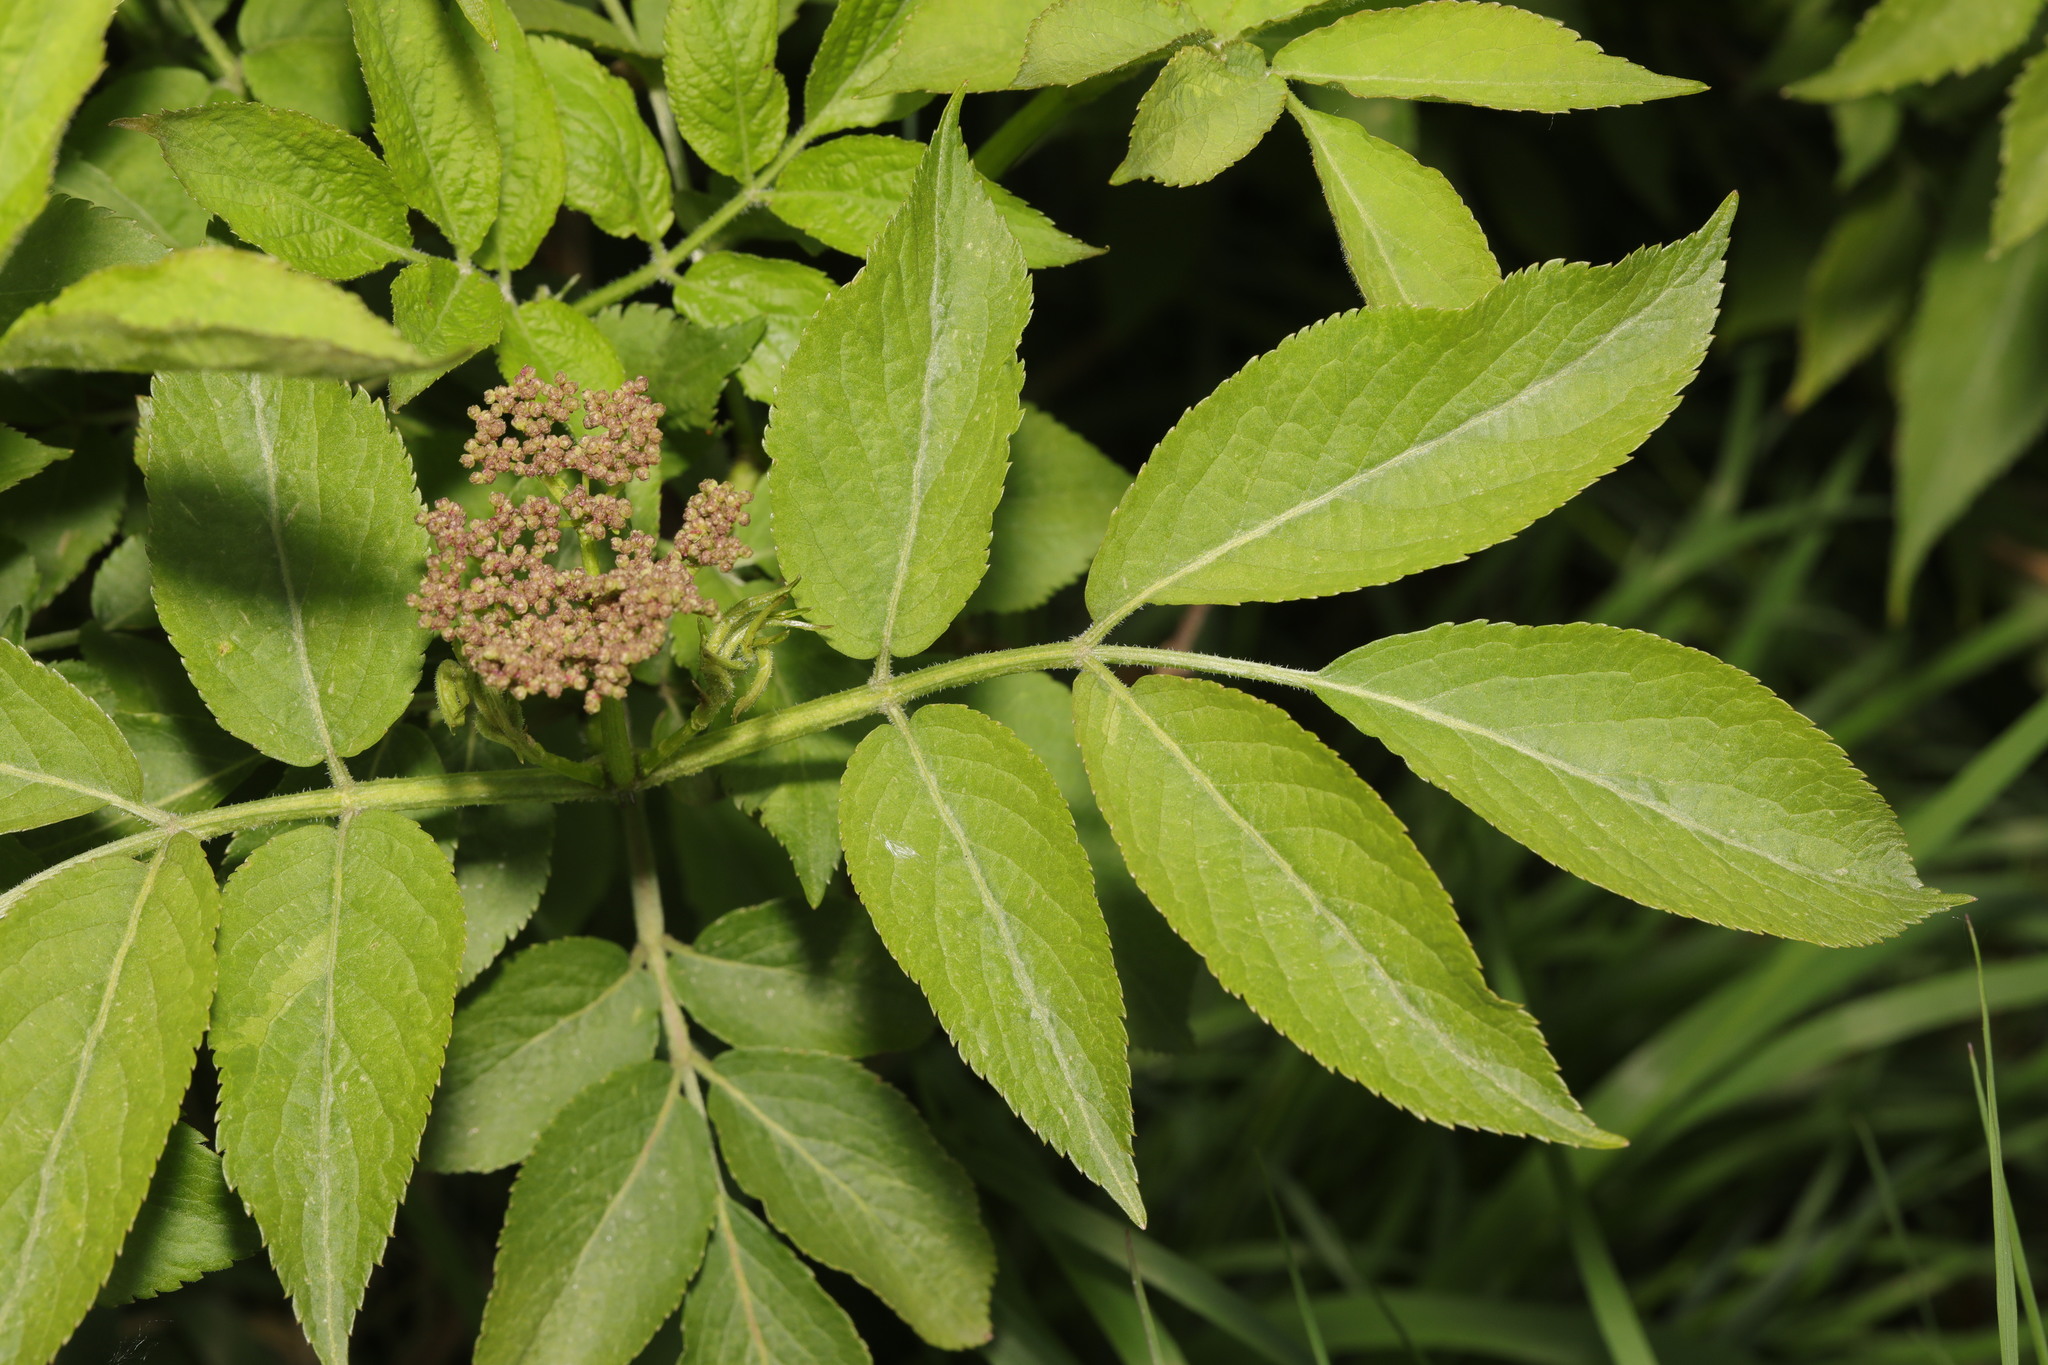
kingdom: Plantae
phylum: Tracheophyta
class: Magnoliopsida
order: Dipsacales
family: Viburnaceae
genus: Sambucus
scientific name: Sambucus nigra
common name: Elder
